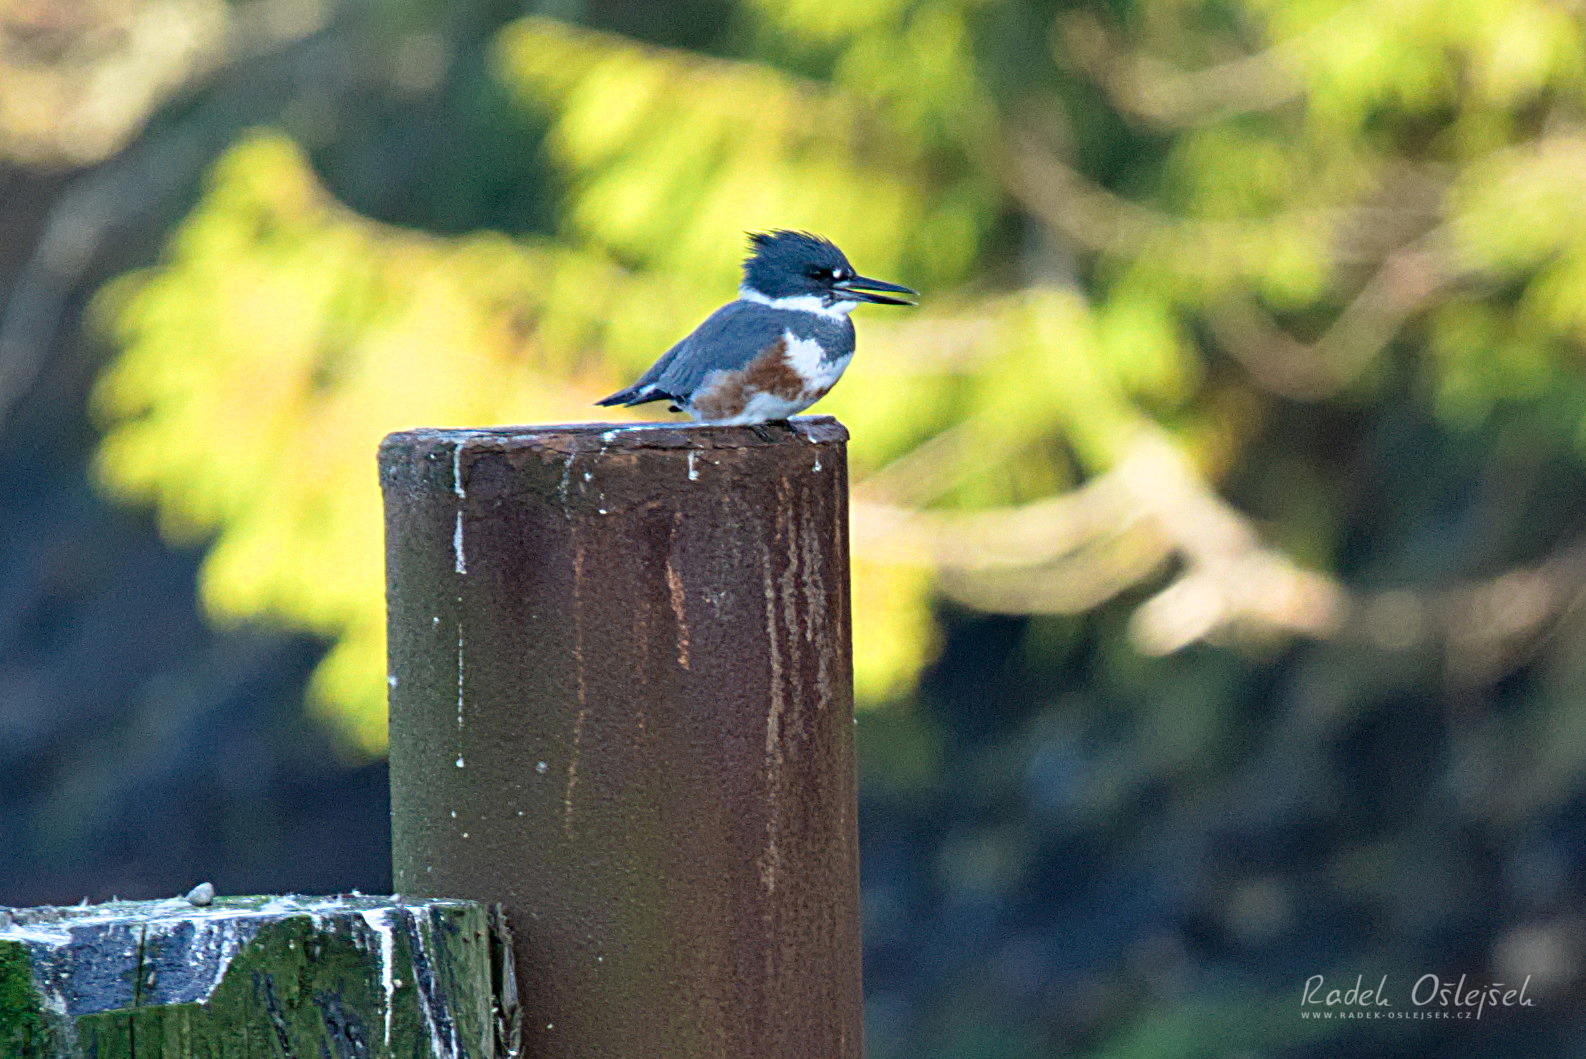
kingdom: Animalia
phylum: Chordata
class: Aves
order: Coraciiformes
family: Alcedinidae
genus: Megaceryle
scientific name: Megaceryle alcyon
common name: Belted kingfisher
